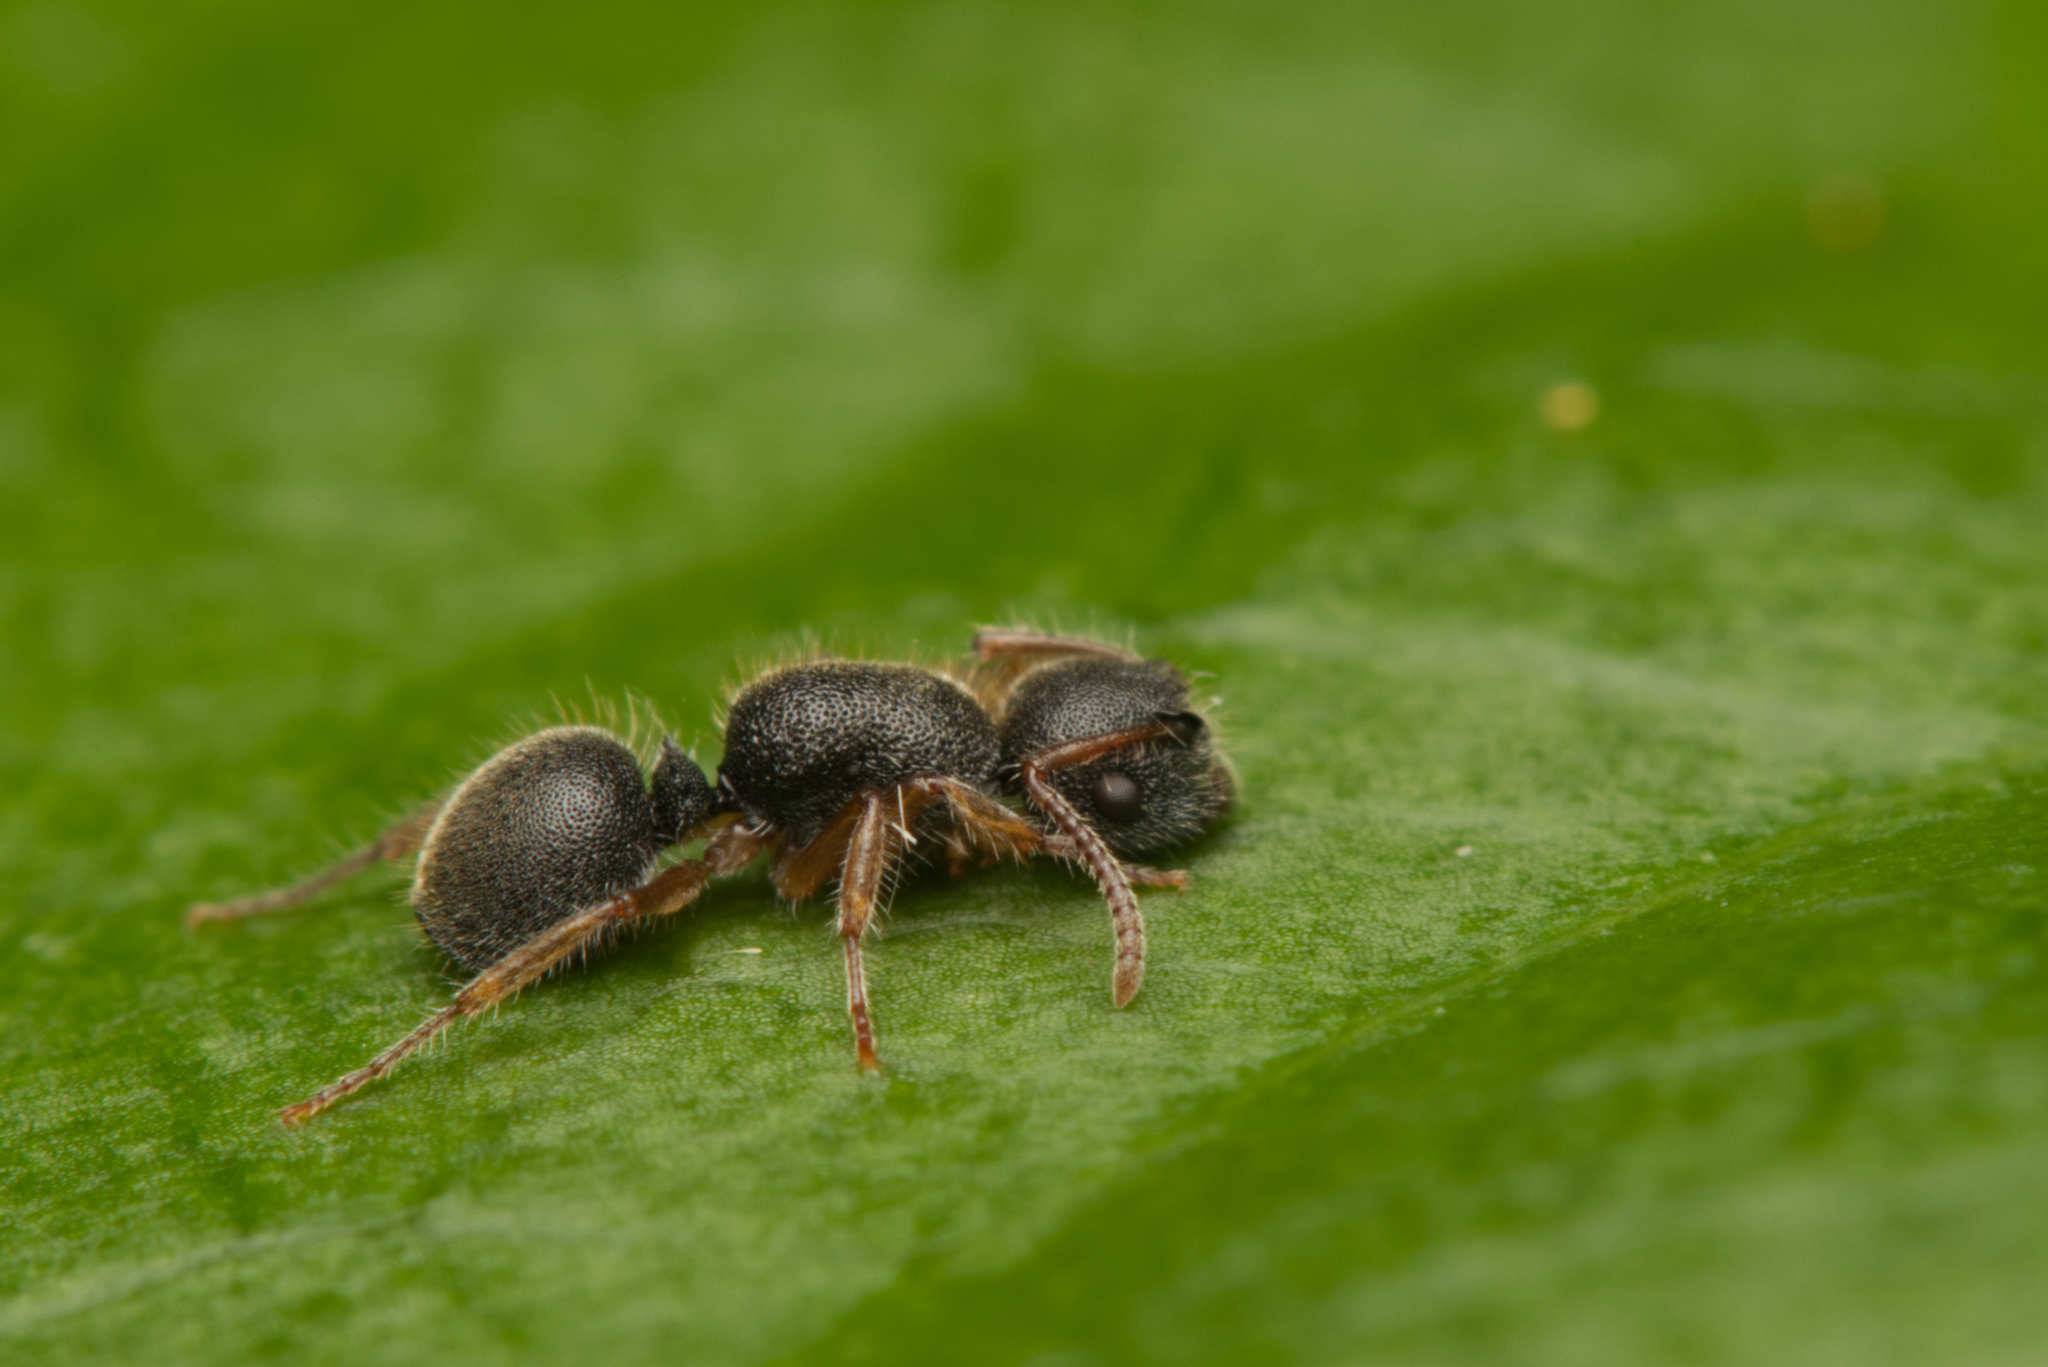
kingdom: Animalia
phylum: Arthropoda
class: Insecta
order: Hymenoptera
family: Formicidae
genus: Echinopla
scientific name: Echinopla turneri
